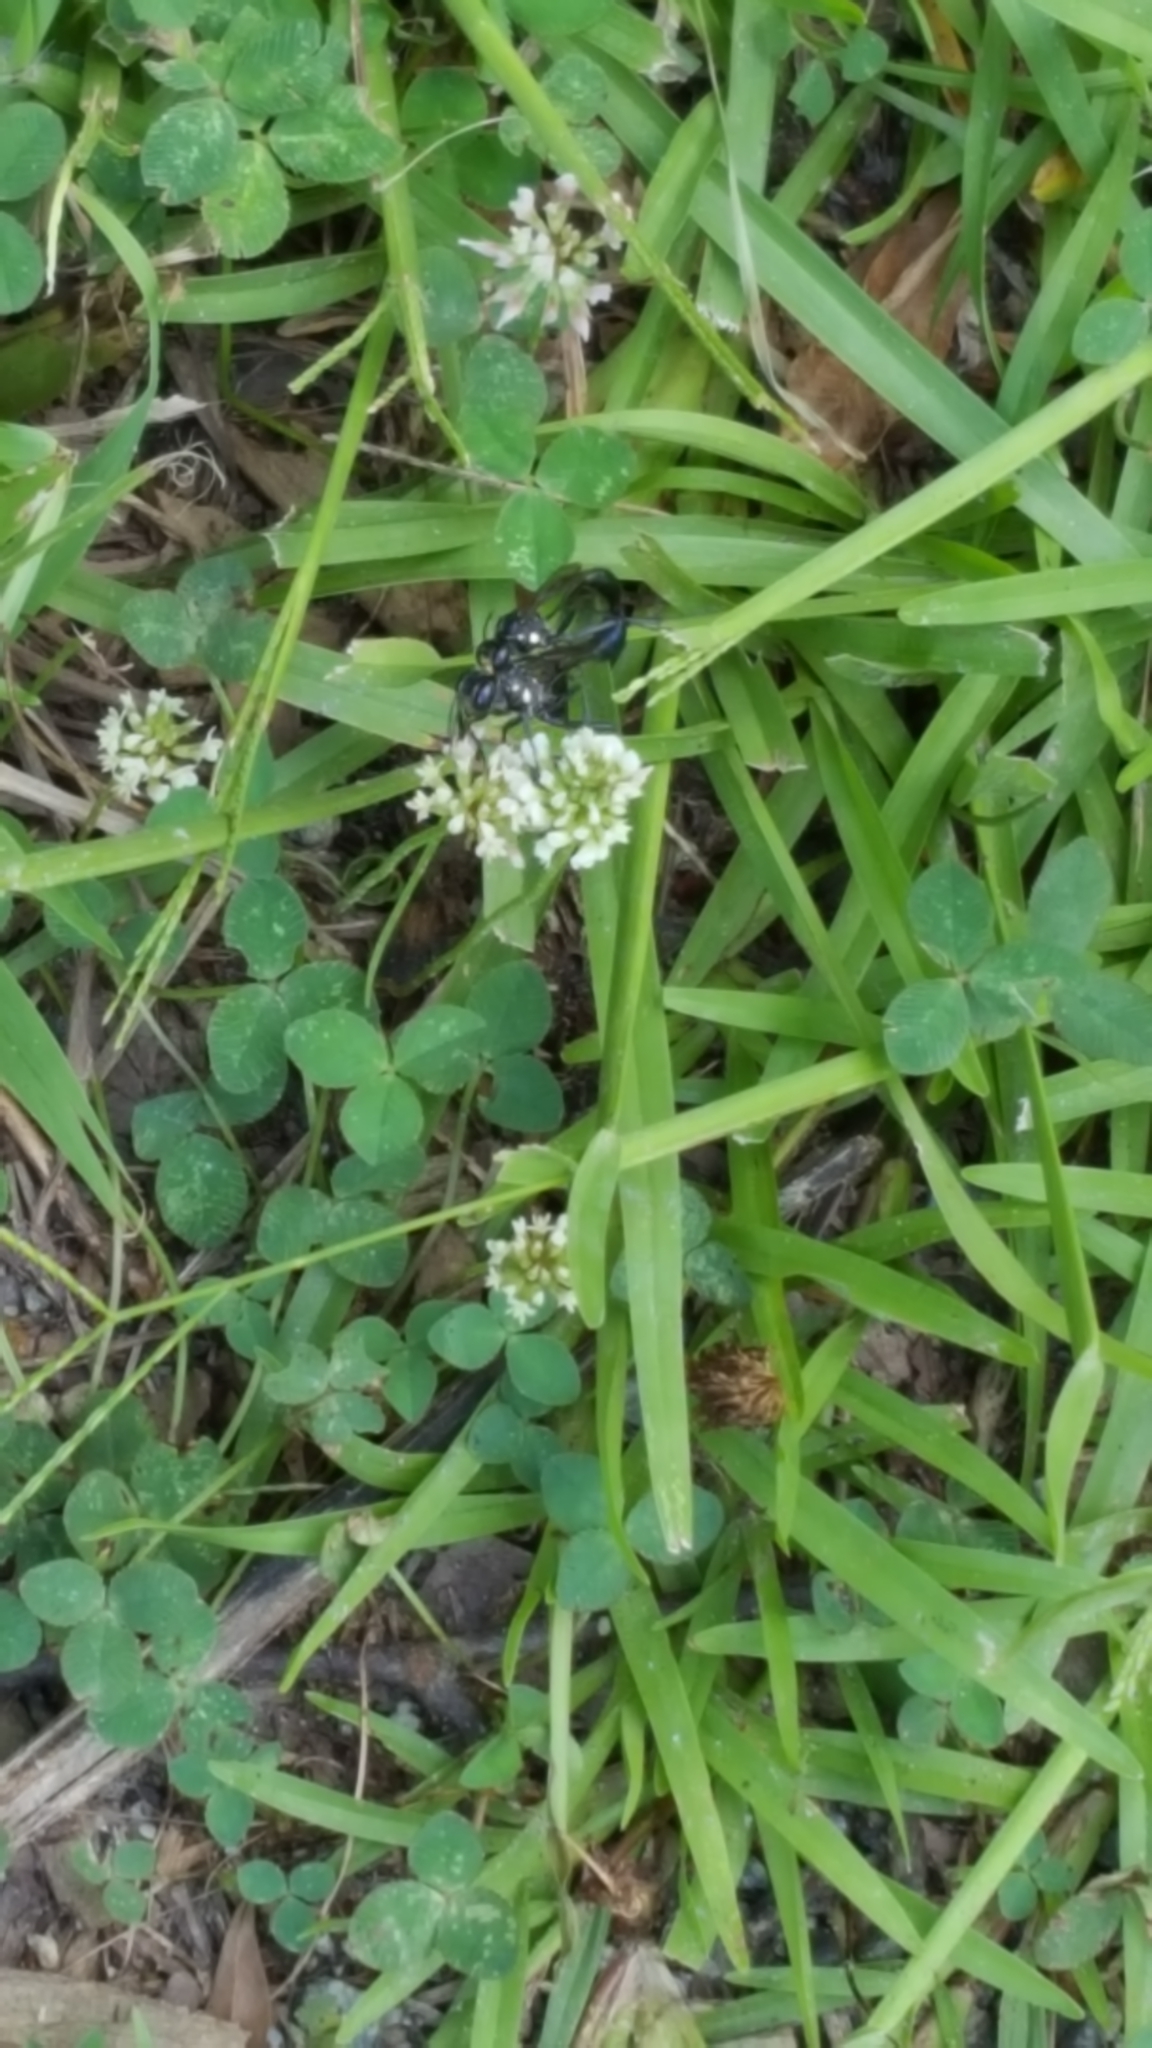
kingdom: Animalia
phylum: Arthropoda
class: Insecta
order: Hymenoptera
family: Sphecidae
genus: Eremnophila
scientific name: Eremnophila aureonotata
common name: Gold-marked thread-waisted wasp
